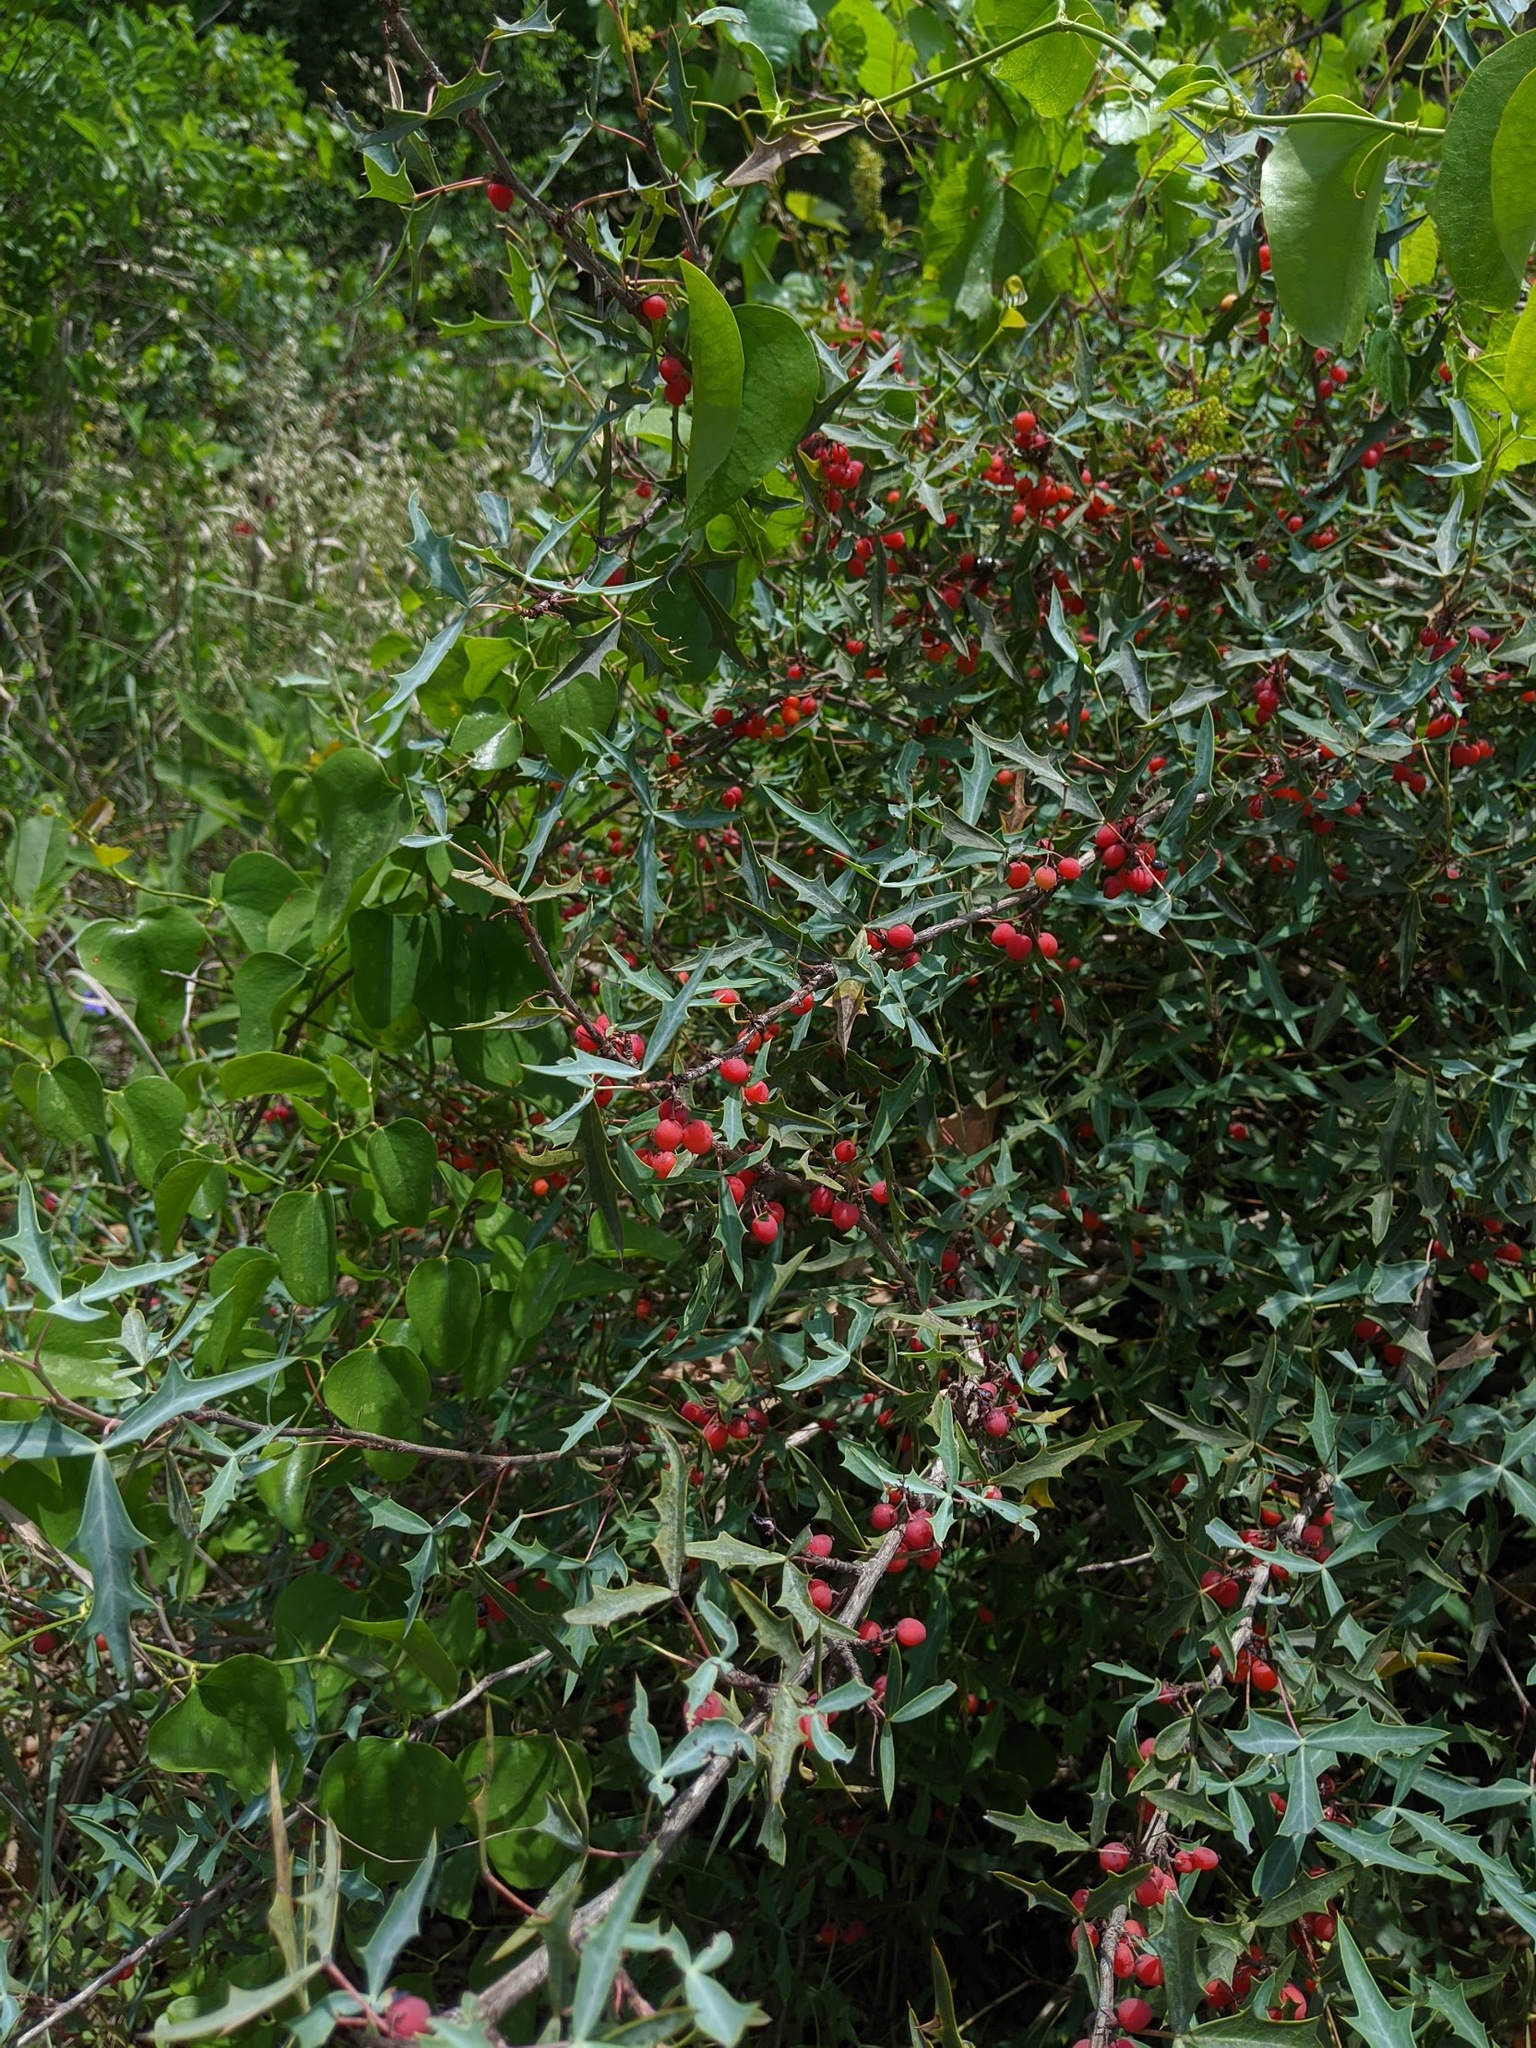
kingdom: Plantae
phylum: Tracheophyta
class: Magnoliopsida
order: Ranunculales
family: Berberidaceae
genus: Alloberberis
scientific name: Alloberberis trifoliolata
